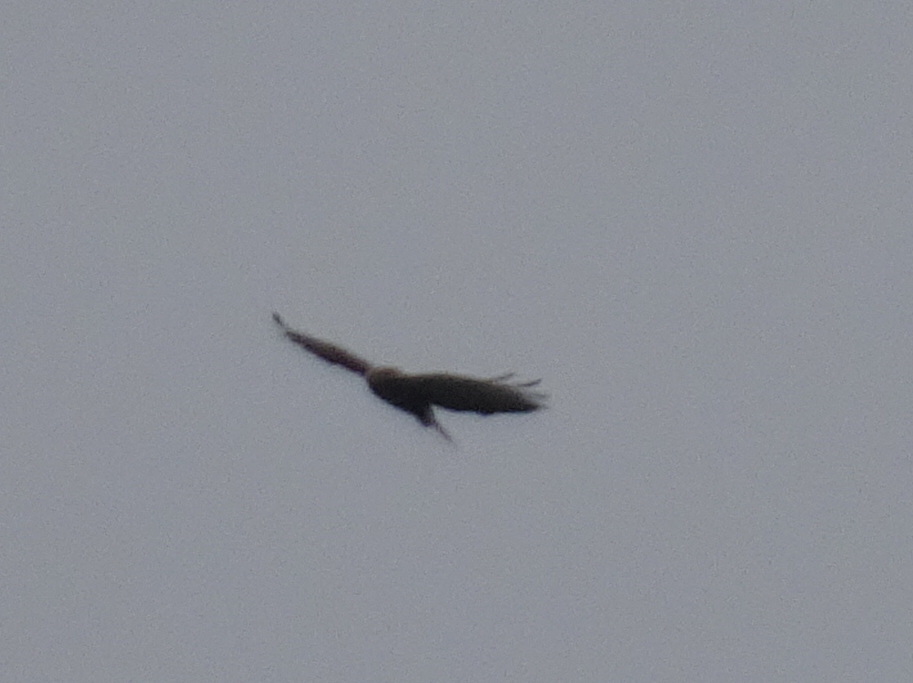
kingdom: Animalia
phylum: Chordata
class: Aves
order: Accipitriformes
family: Accipitridae
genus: Buteo
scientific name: Buteo buteo
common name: Common buzzard
